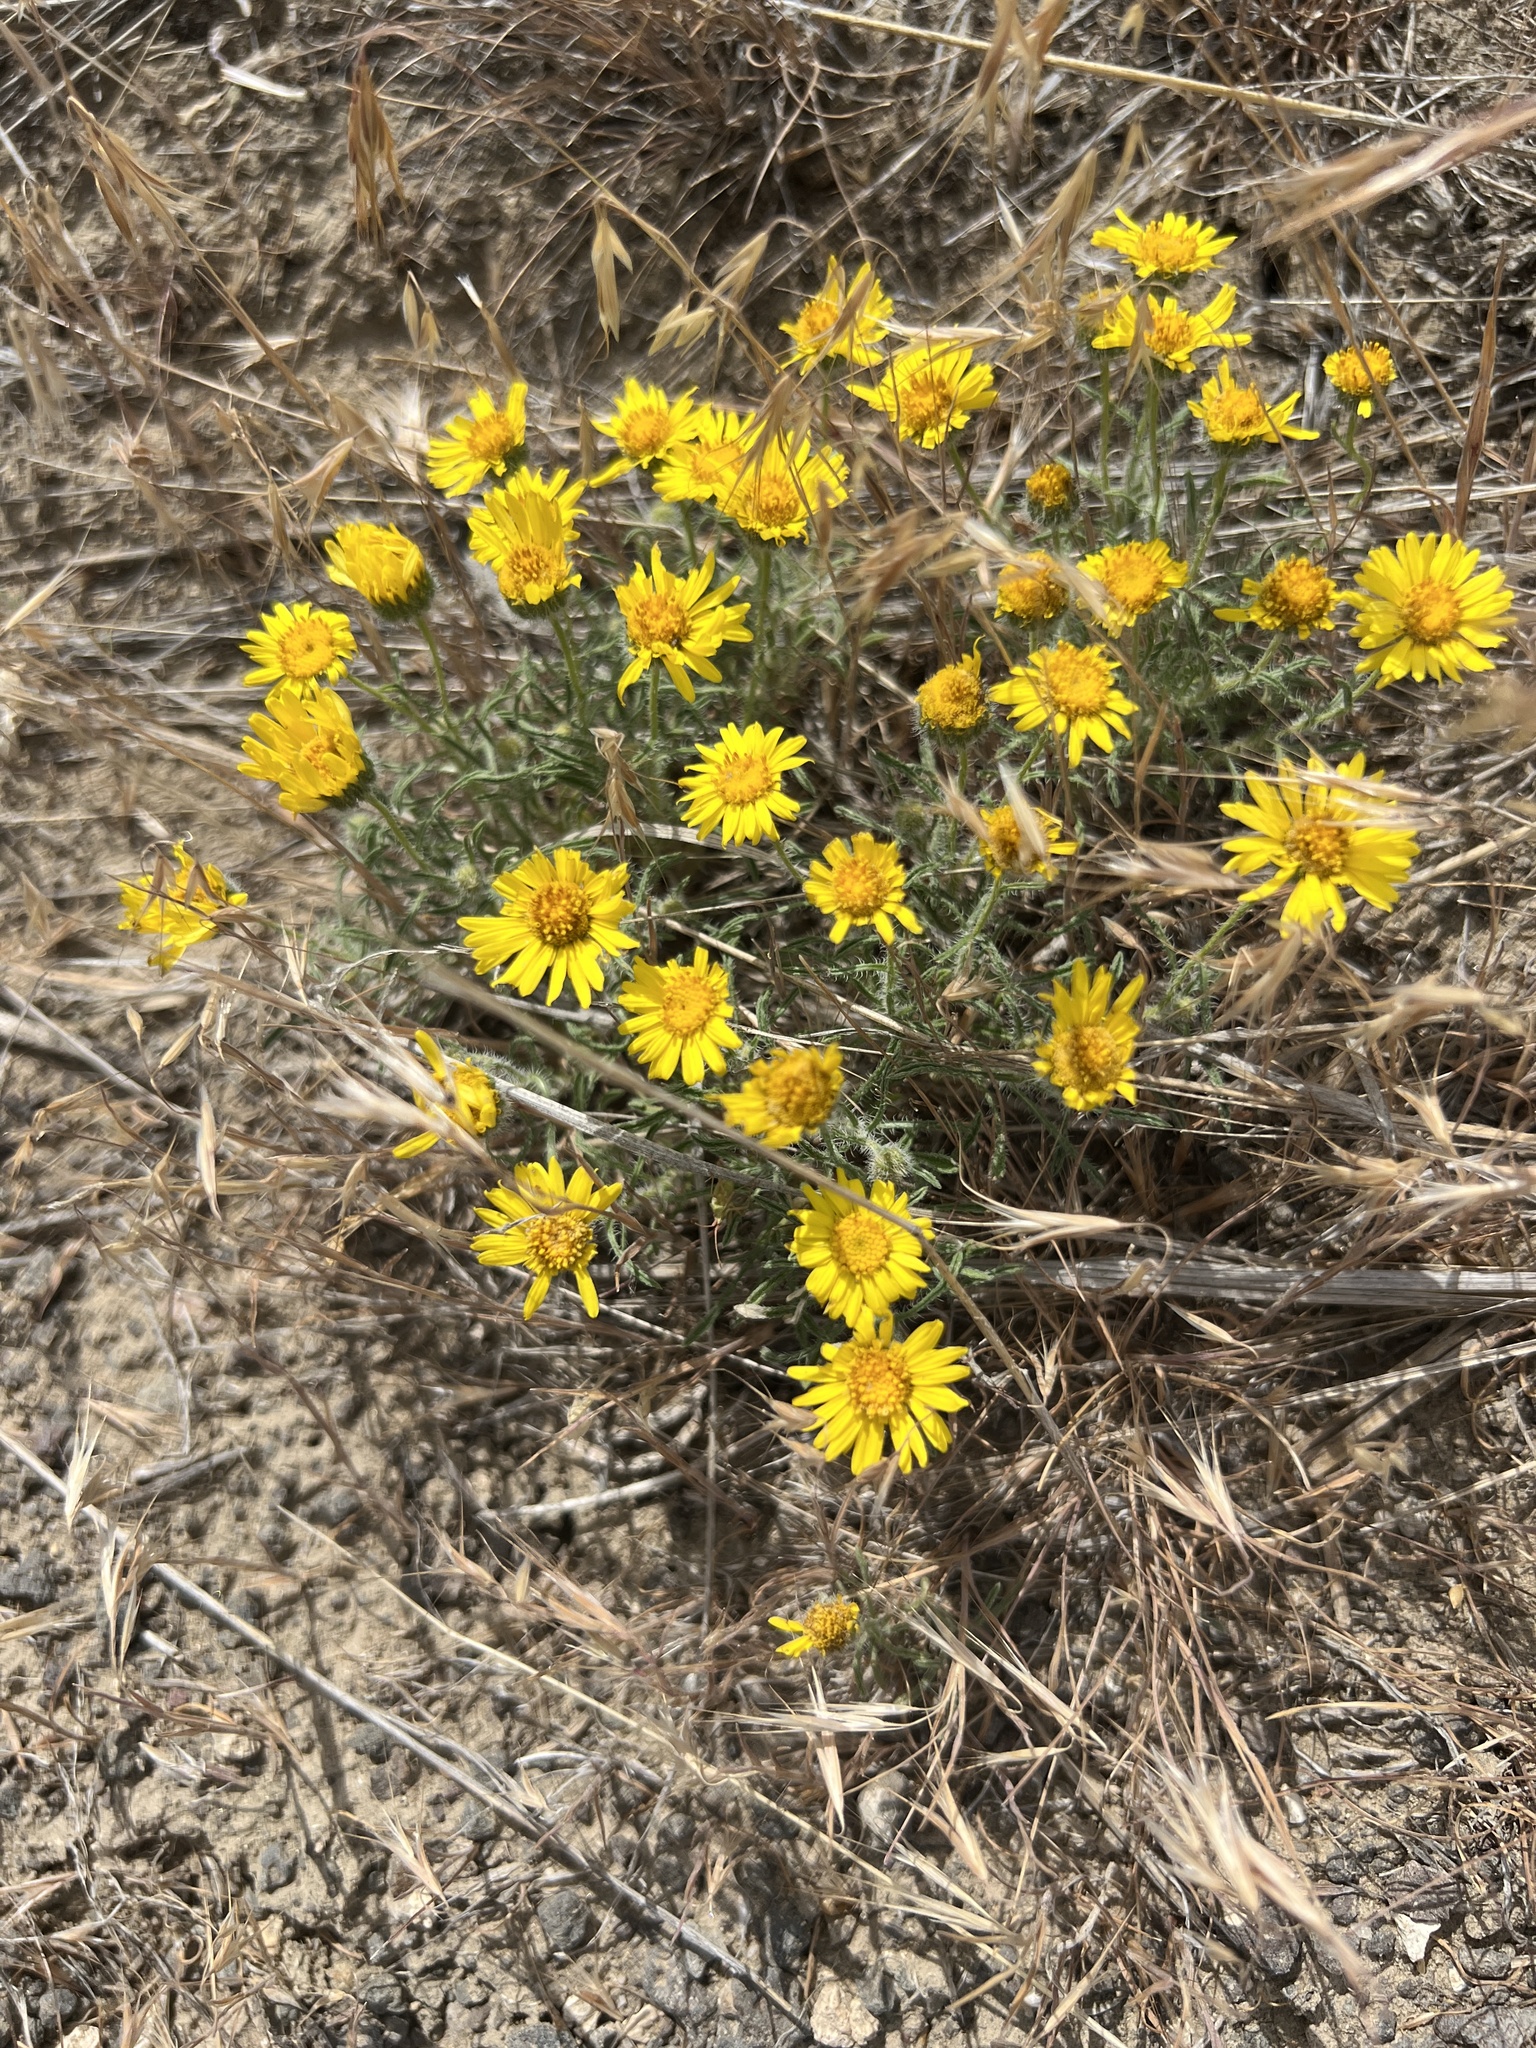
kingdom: Plantae
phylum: Tracheophyta
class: Magnoliopsida
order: Asterales
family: Asteraceae
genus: Erigeron
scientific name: Erigeron piperianus
